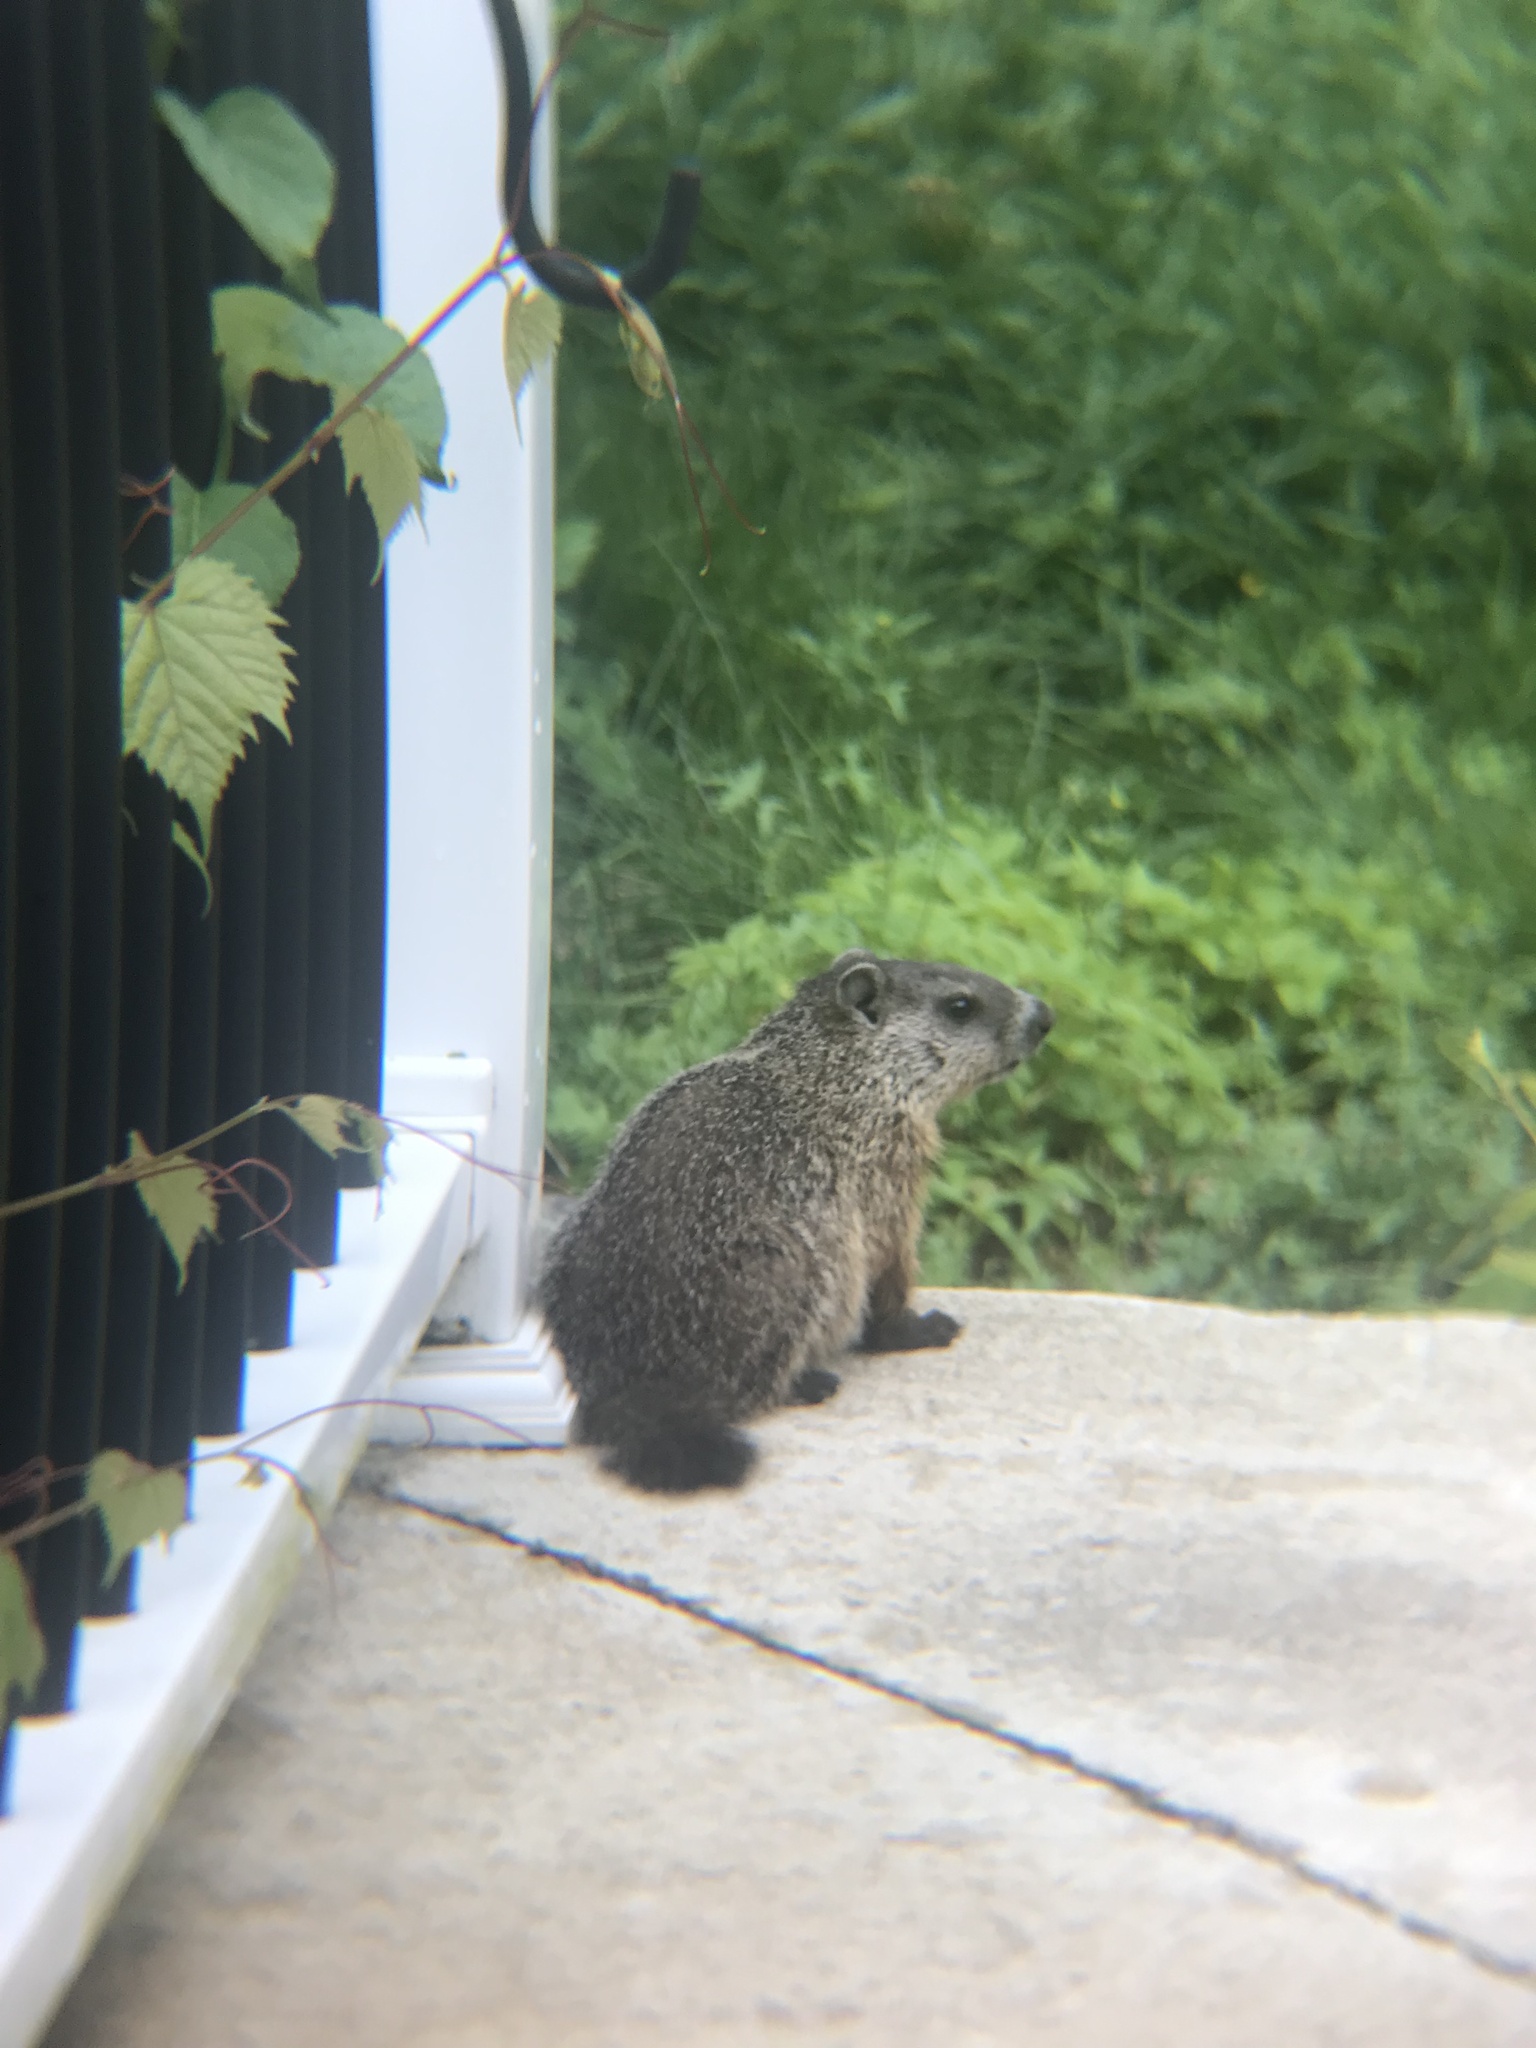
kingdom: Animalia
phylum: Chordata
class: Mammalia
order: Rodentia
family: Sciuridae
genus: Marmota
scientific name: Marmota monax
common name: Groundhog
